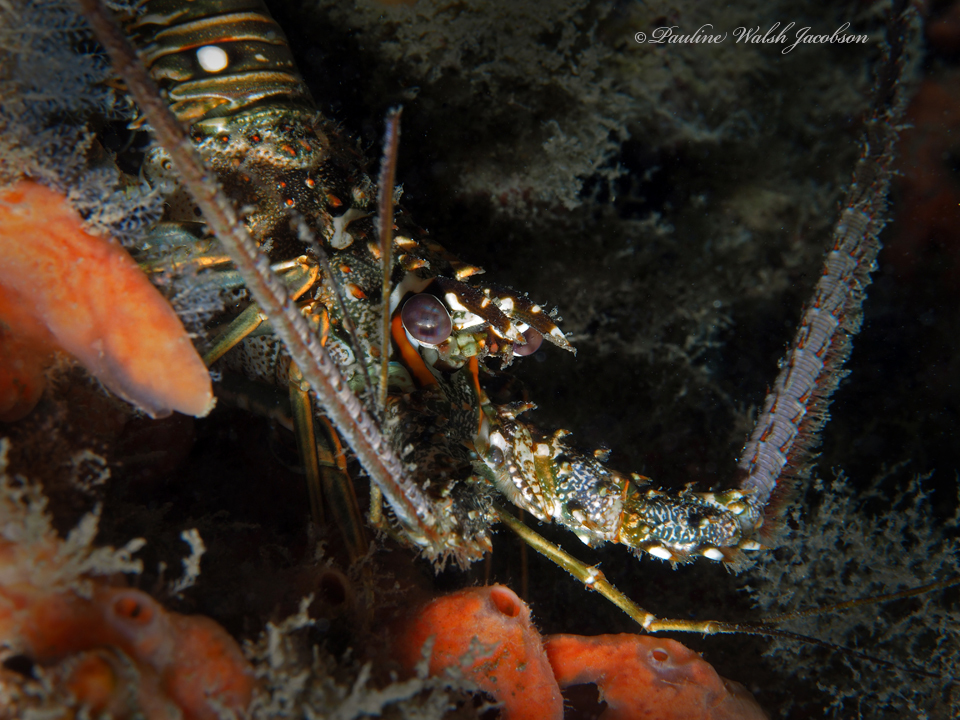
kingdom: Animalia
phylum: Arthropoda
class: Malacostraca
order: Decapoda
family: Palinuridae
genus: Panulirus
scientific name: Panulirus argus
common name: Caribbean spiny lobster
